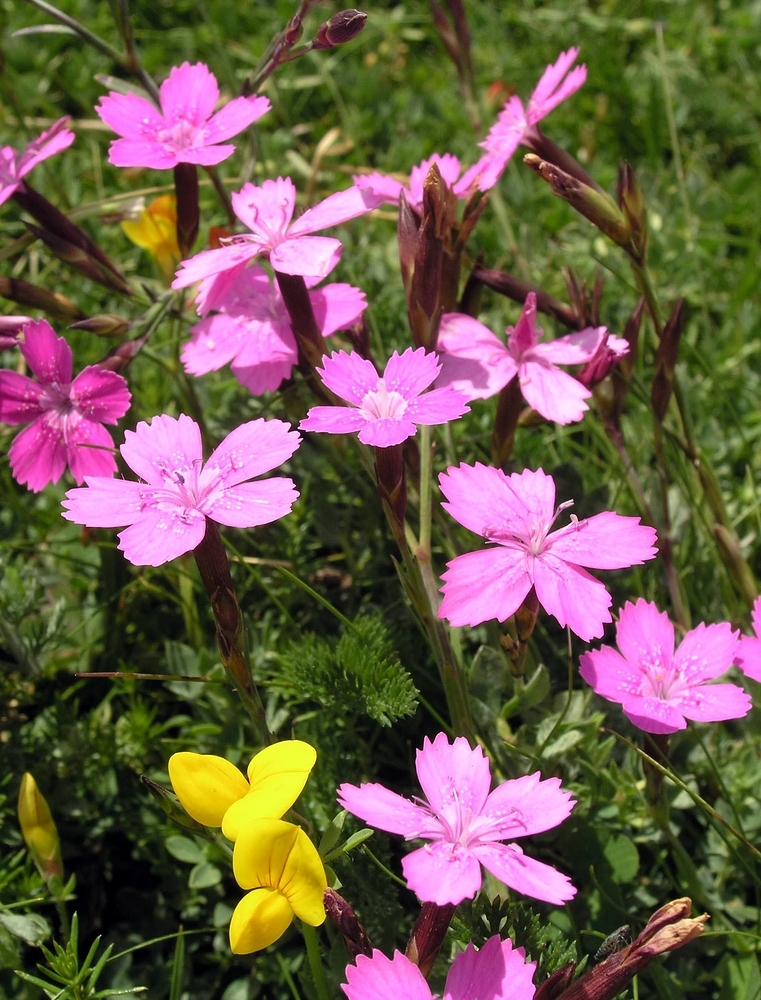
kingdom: Plantae
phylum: Tracheophyta
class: Magnoliopsida
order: Caryophyllales
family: Caryophyllaceae
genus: Dianthus
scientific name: Dianthus deltoides
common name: Maiden pink
